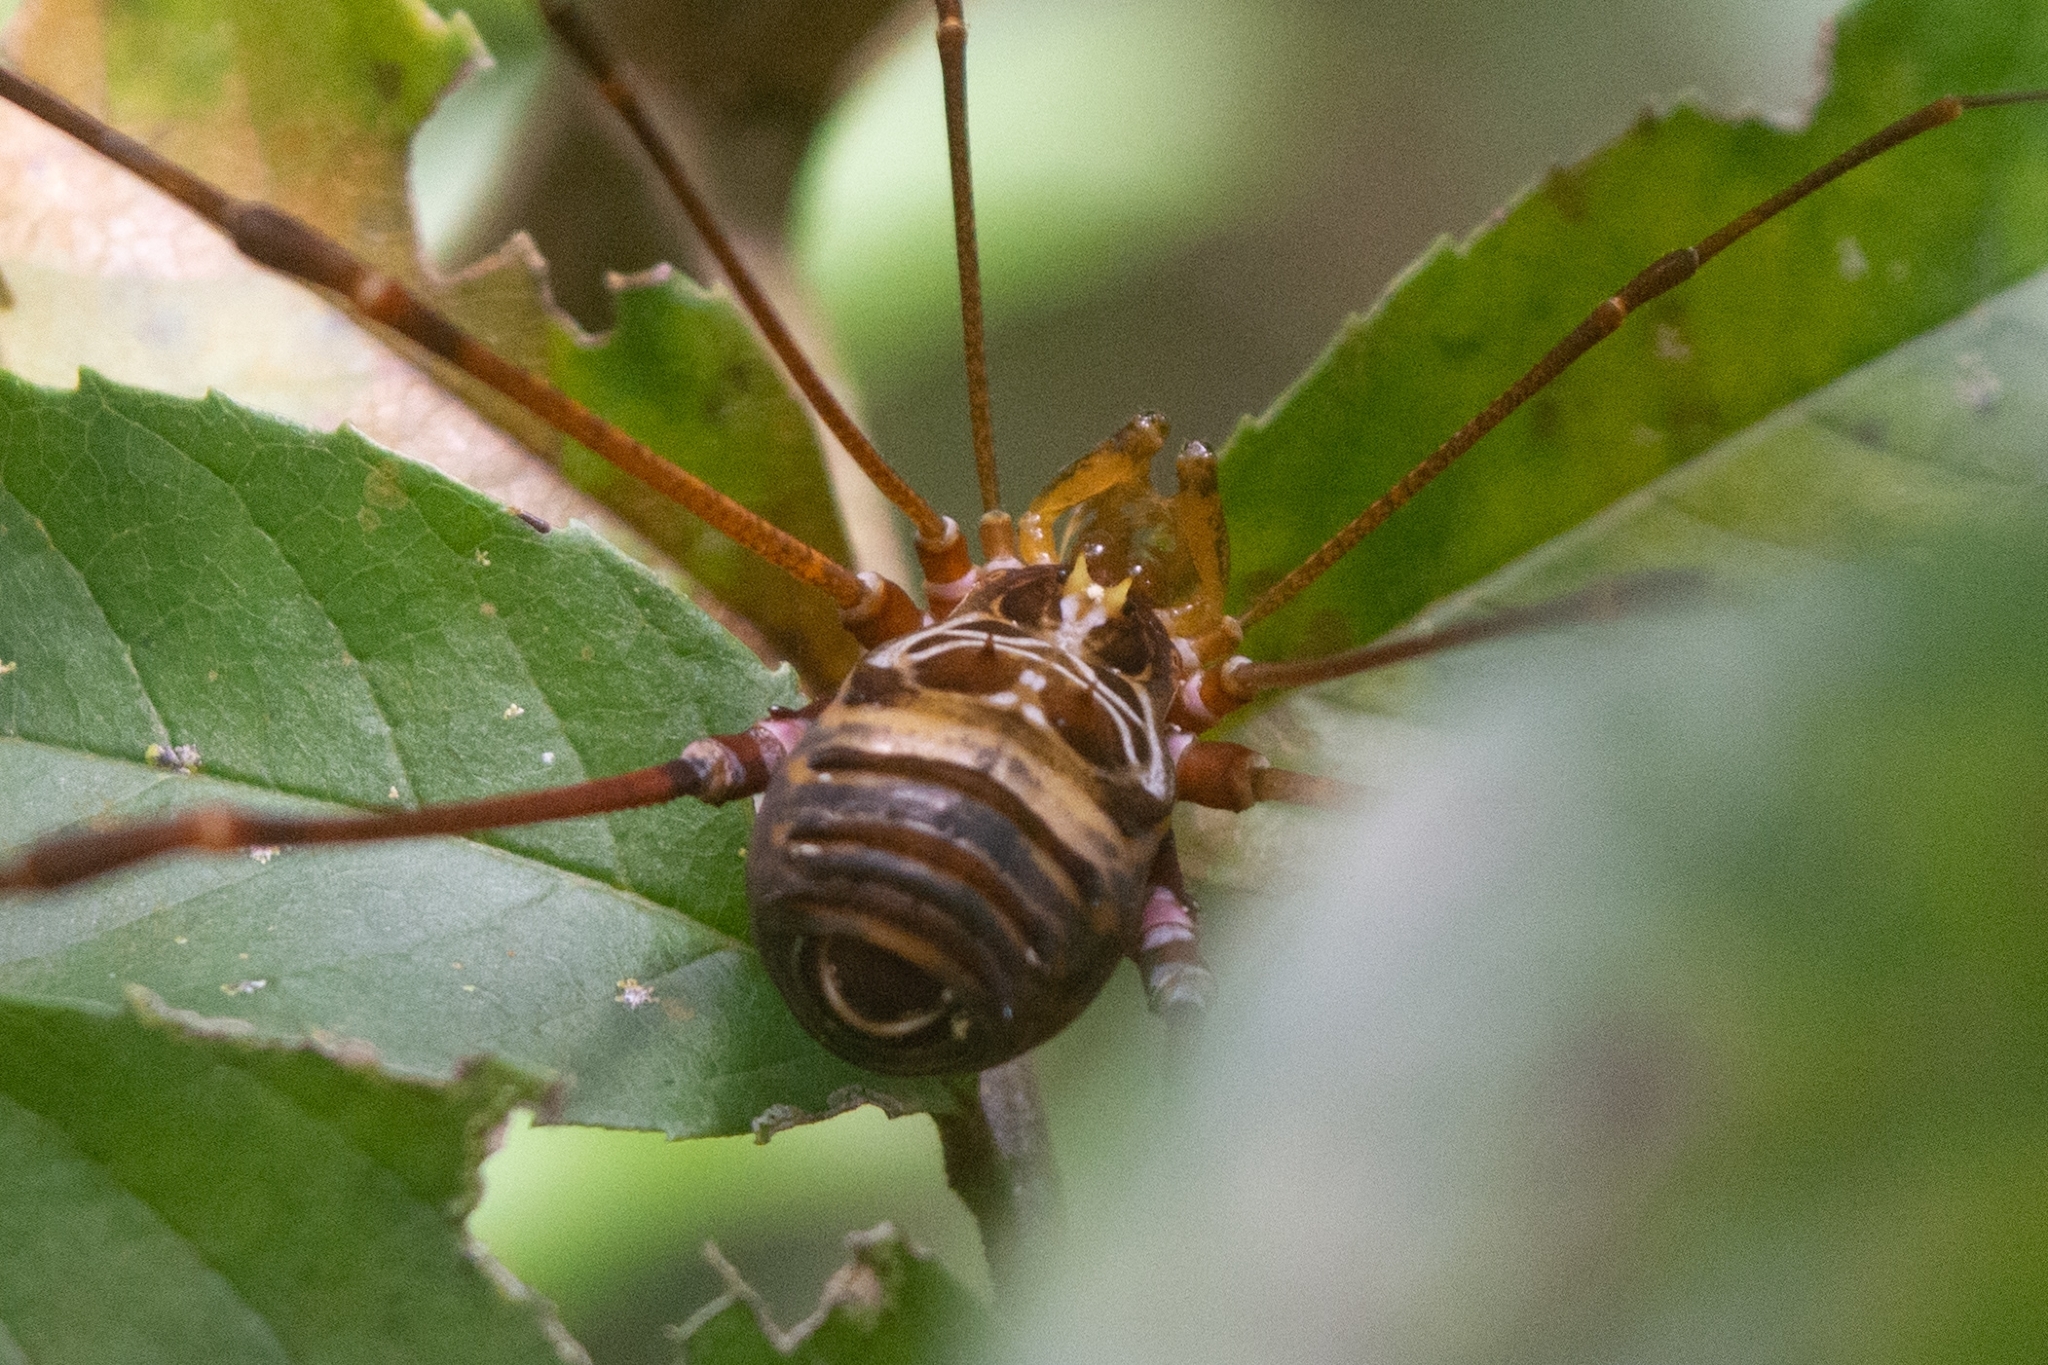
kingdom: Animalia
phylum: Arthropoda
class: Arachnida
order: Opiliones
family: Gonyleptidae
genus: Serracutisoma
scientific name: Serracutisoma catarina
